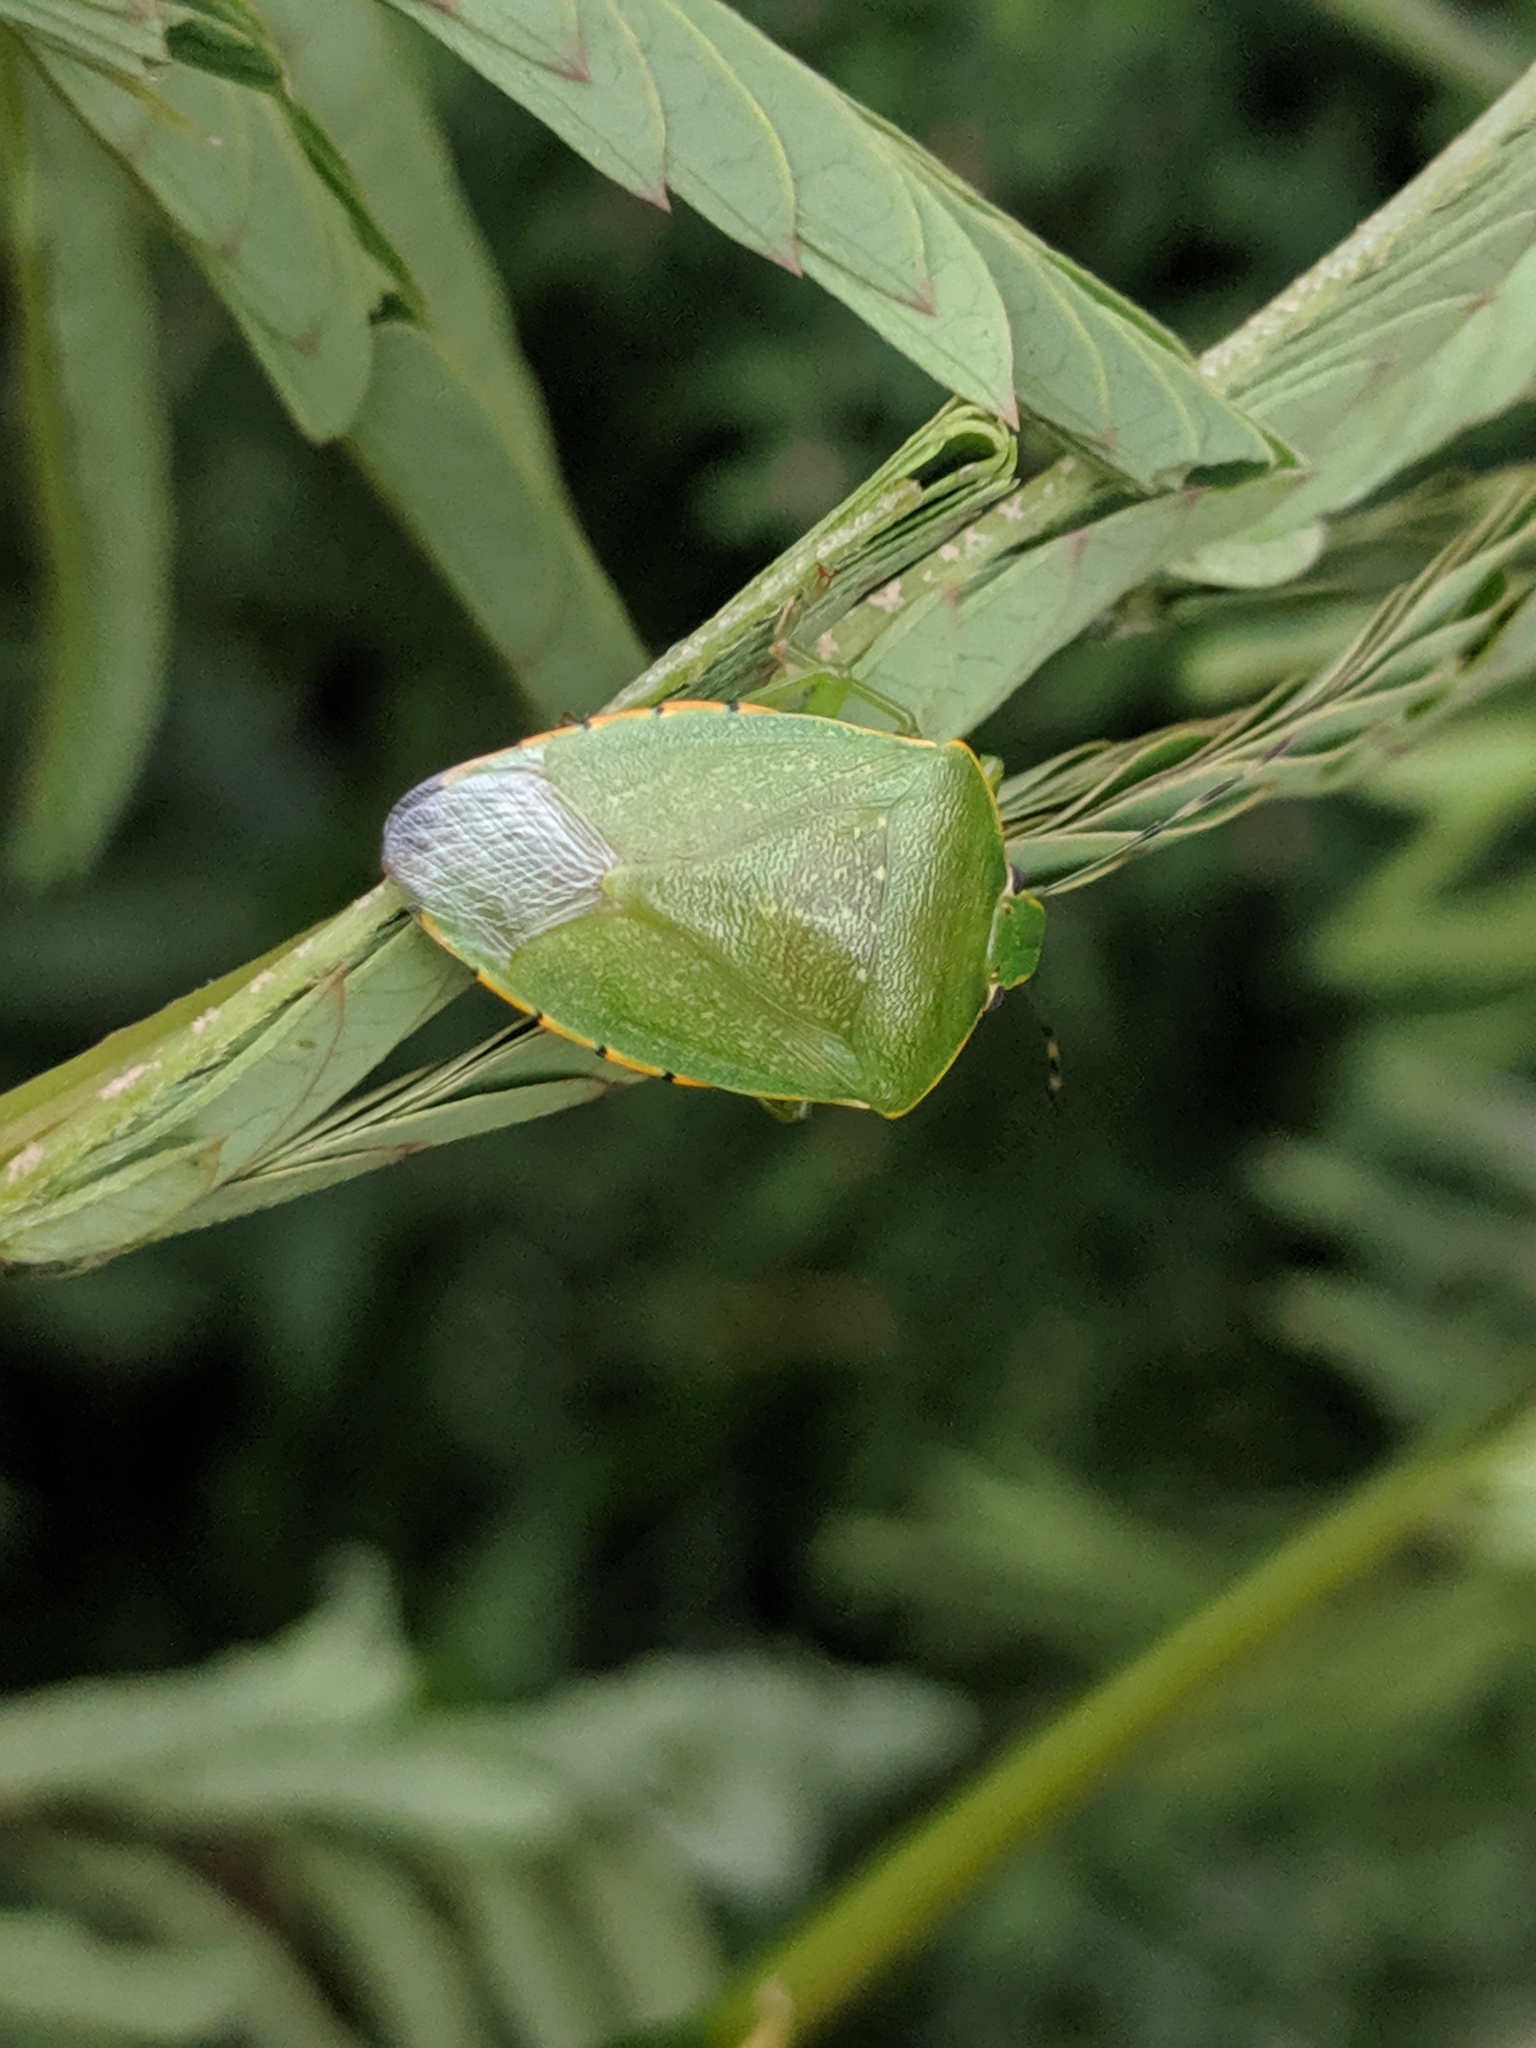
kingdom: Animalia
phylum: Arthropoda
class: Insecta
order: Hemiptera
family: Pentatomidae
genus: Chinavia
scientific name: Chinavia hilaris
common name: Green stink bug
